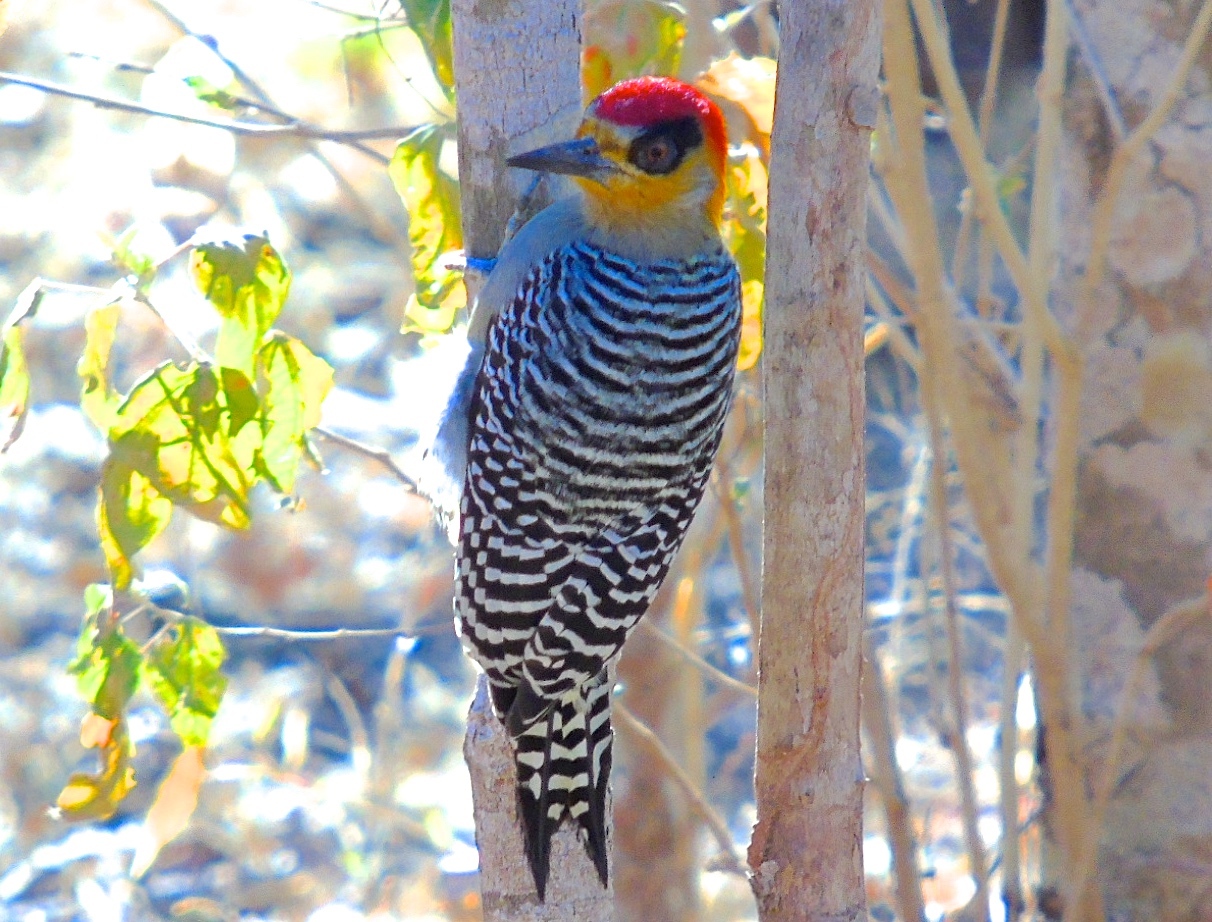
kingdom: Animalia
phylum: Chordata
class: Aves
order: Piciformes
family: Picidae
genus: Melanerpes
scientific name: Melanerpes chrysogenys
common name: Golden-cheeked woodpecker
